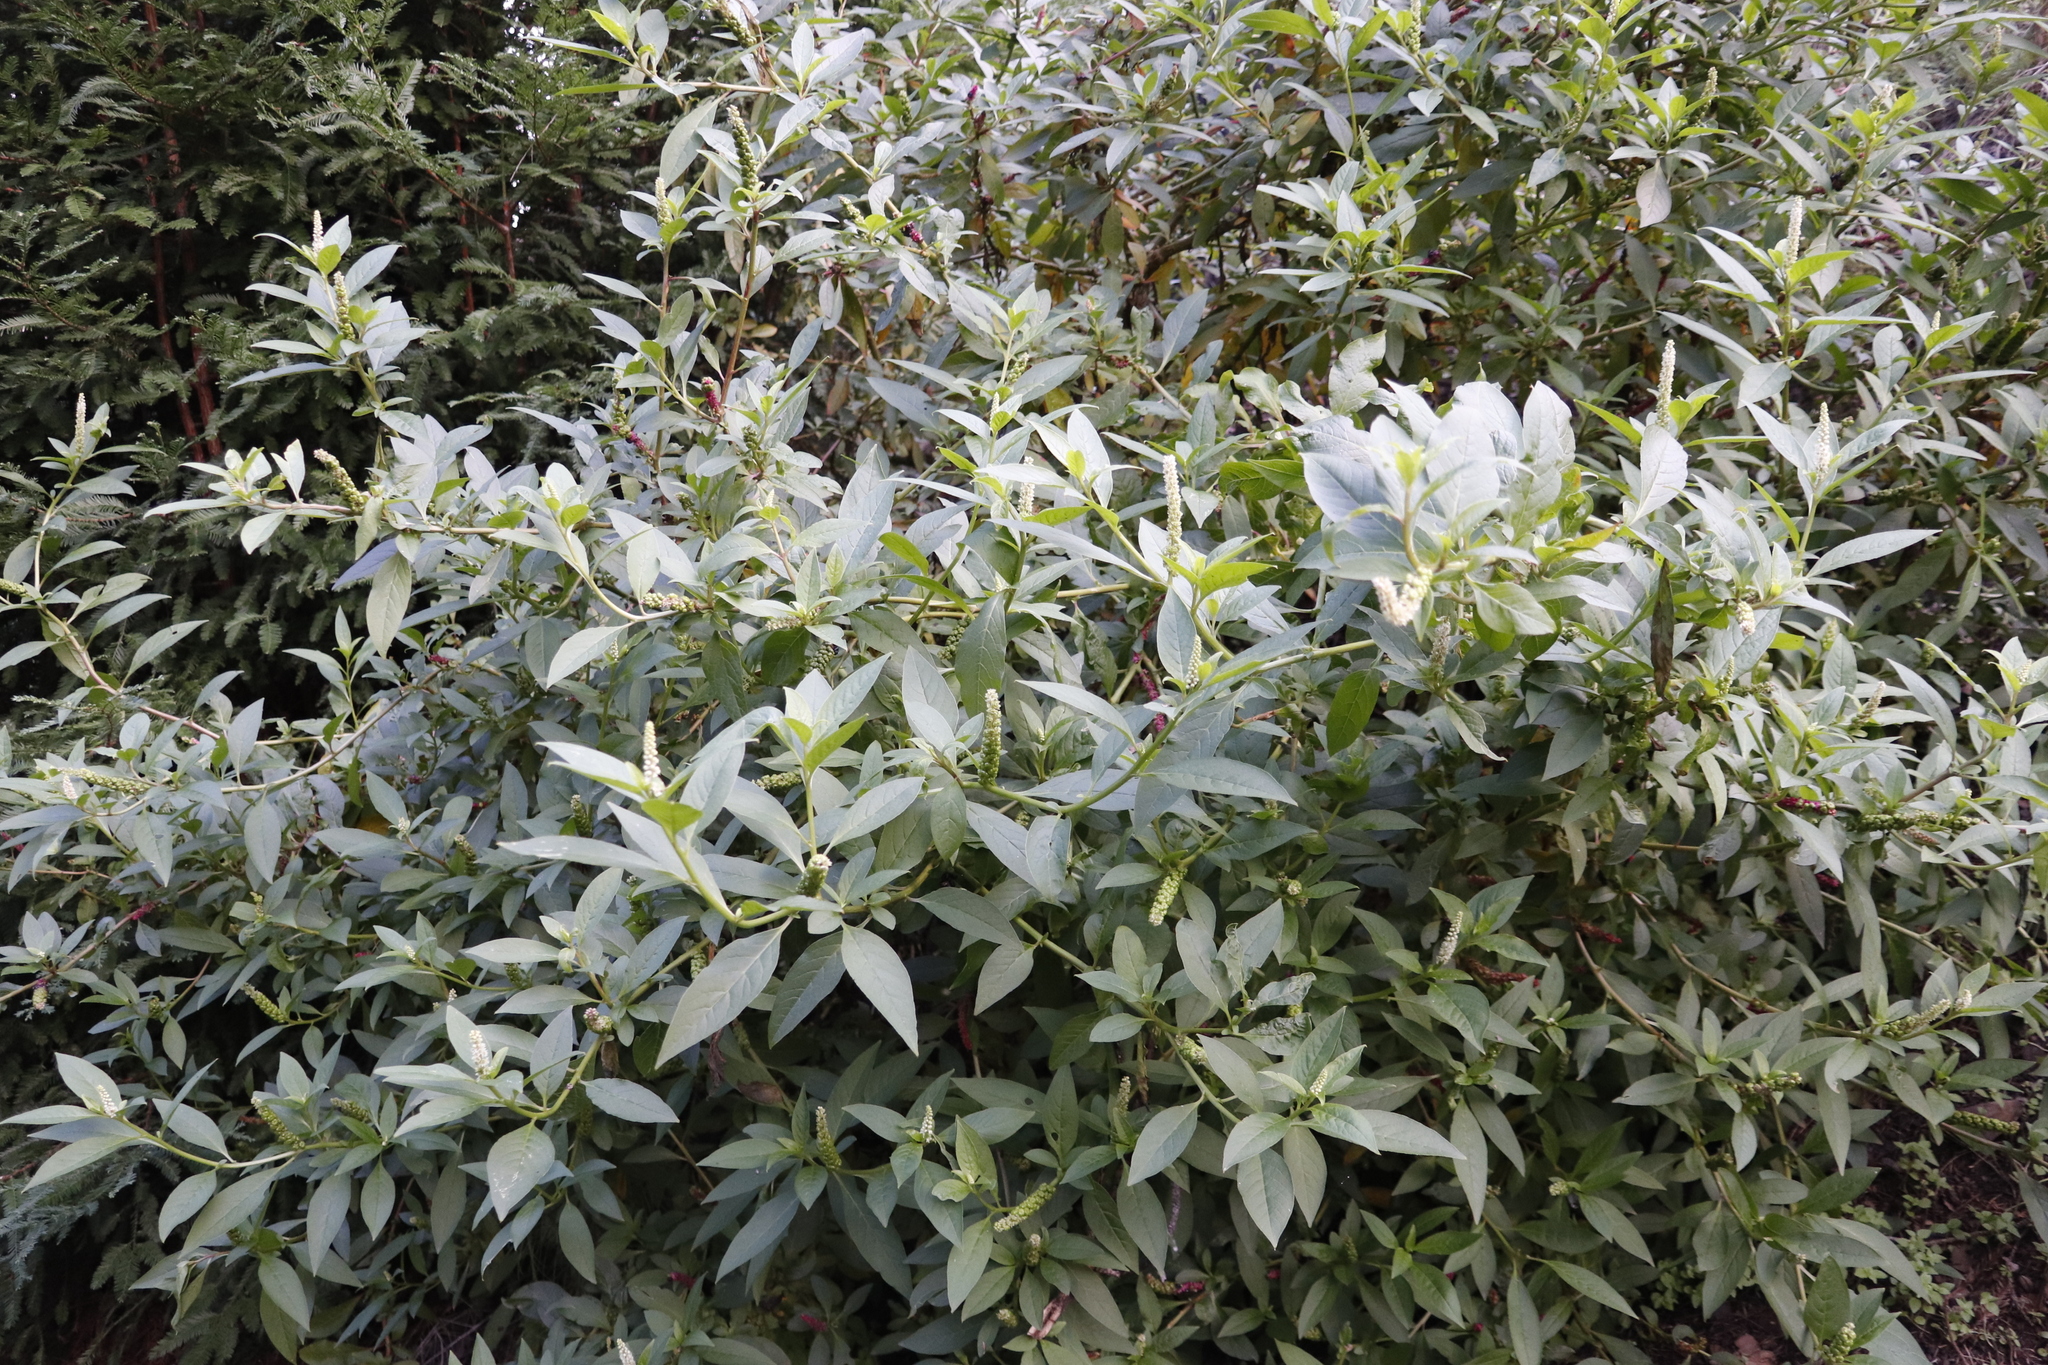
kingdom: Plantae
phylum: Tracheophyta
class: Magnoliopsida
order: Caryophyllales
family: Phytolaccaceae
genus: Phytolacca
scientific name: Phytolacca icosandra
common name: Button pokeweed
